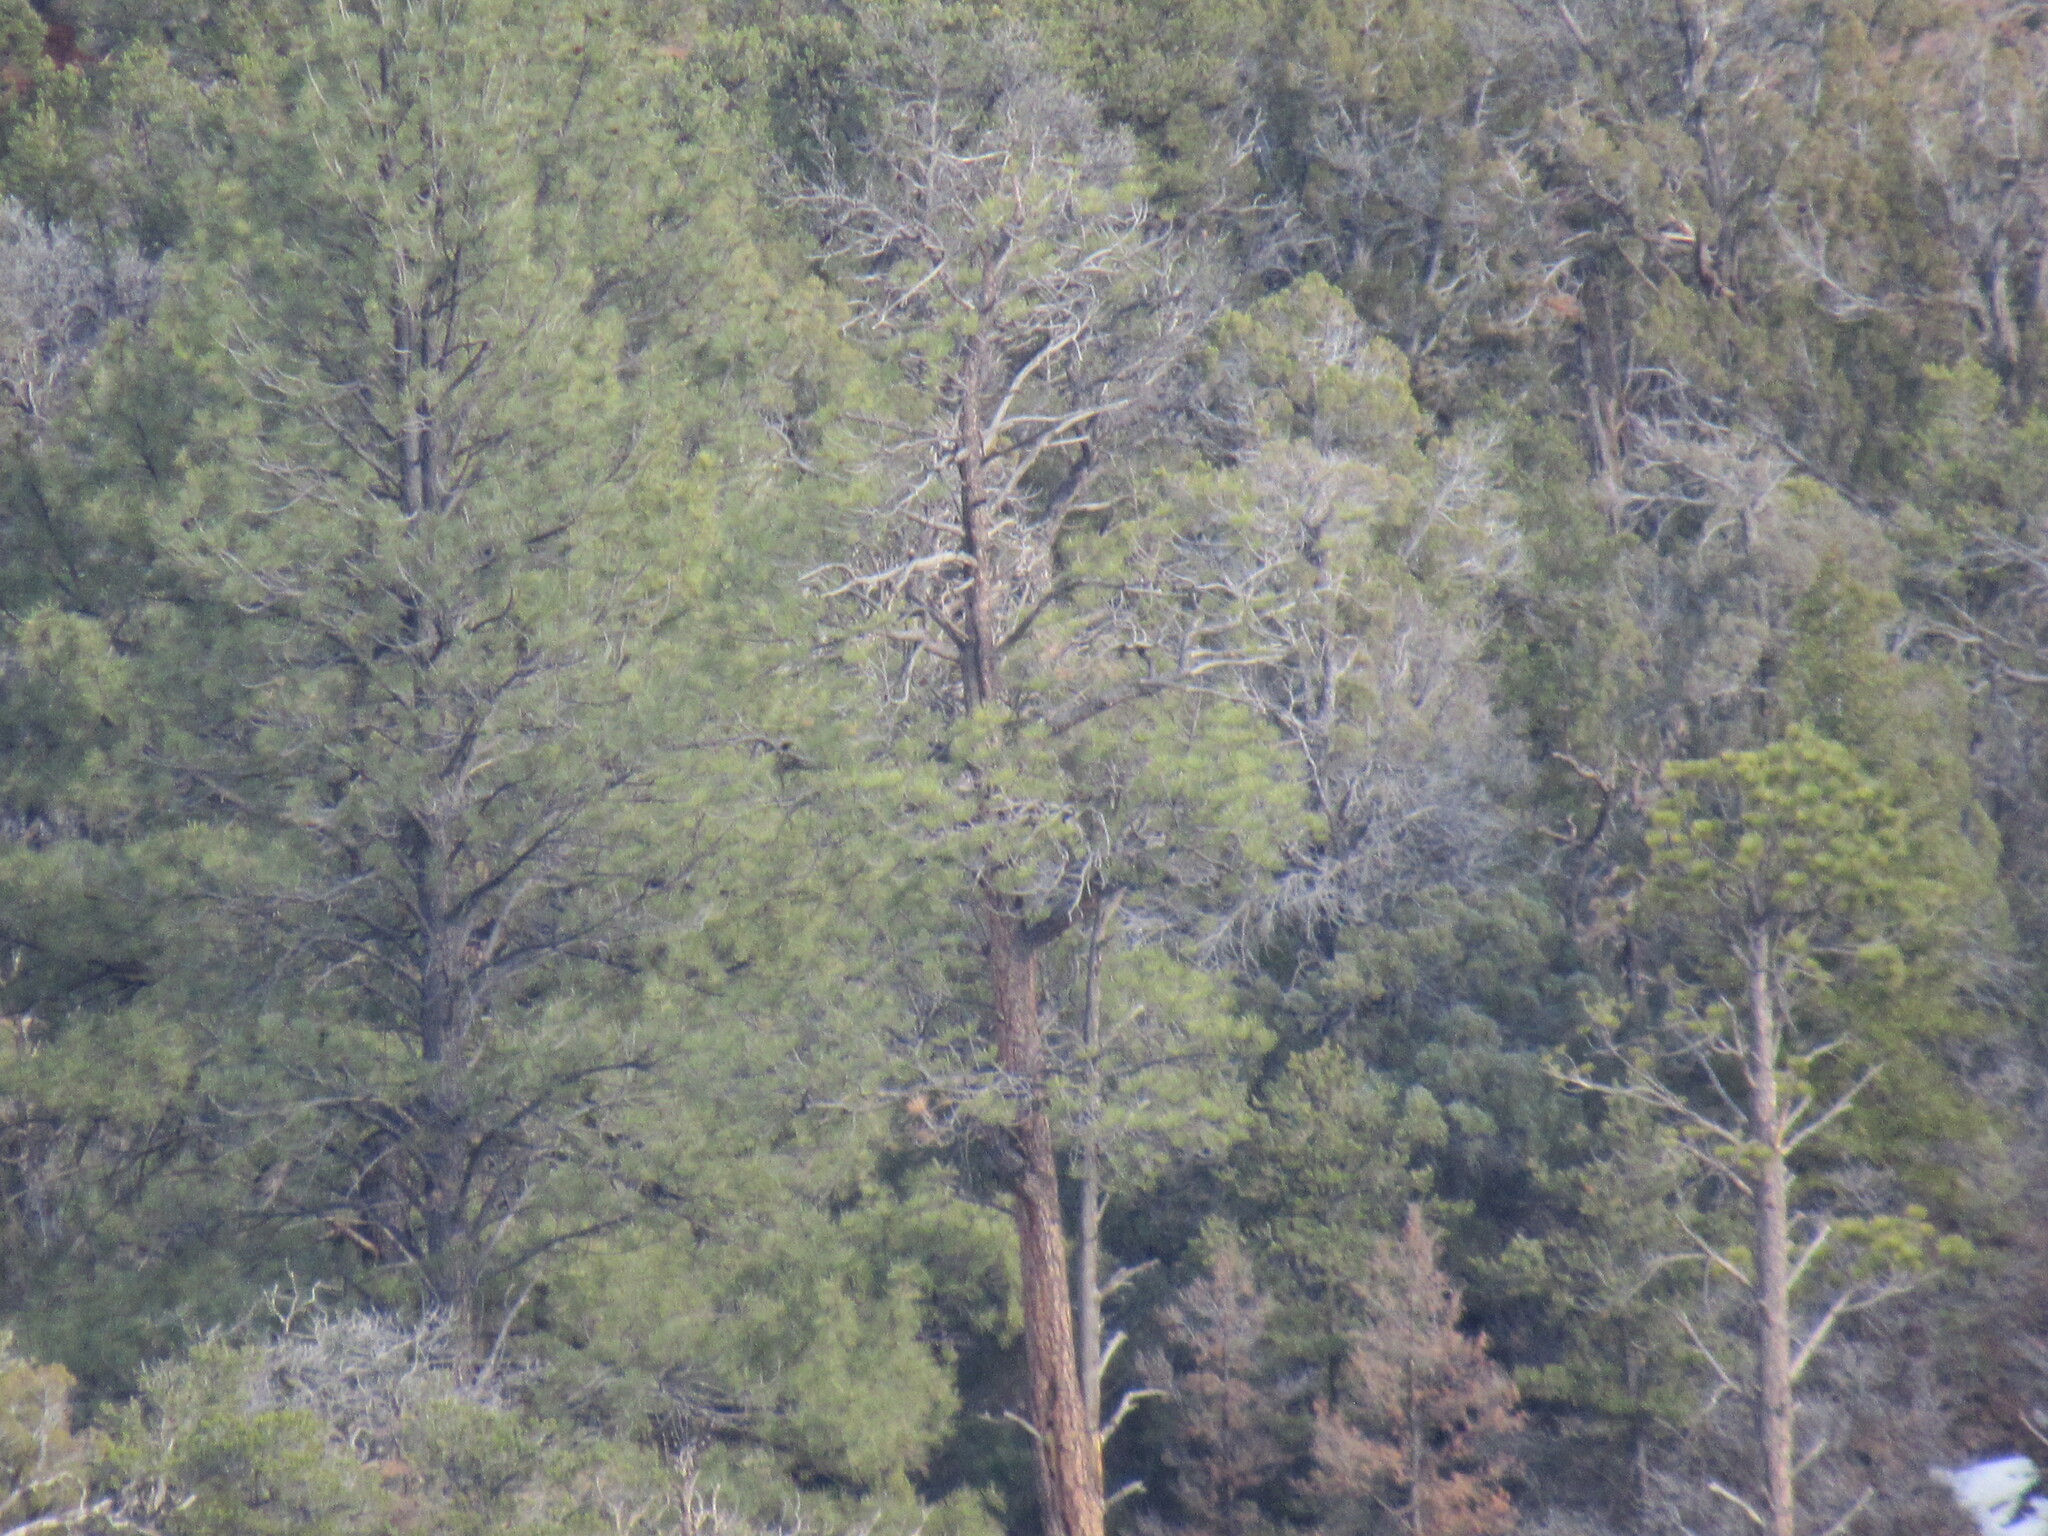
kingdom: Plantae
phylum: Tracheophyta
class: Pinopsida
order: Pinales
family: Pinaceae
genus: Pinus
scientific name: Pinus ponderosa
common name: Western yellow-pine
